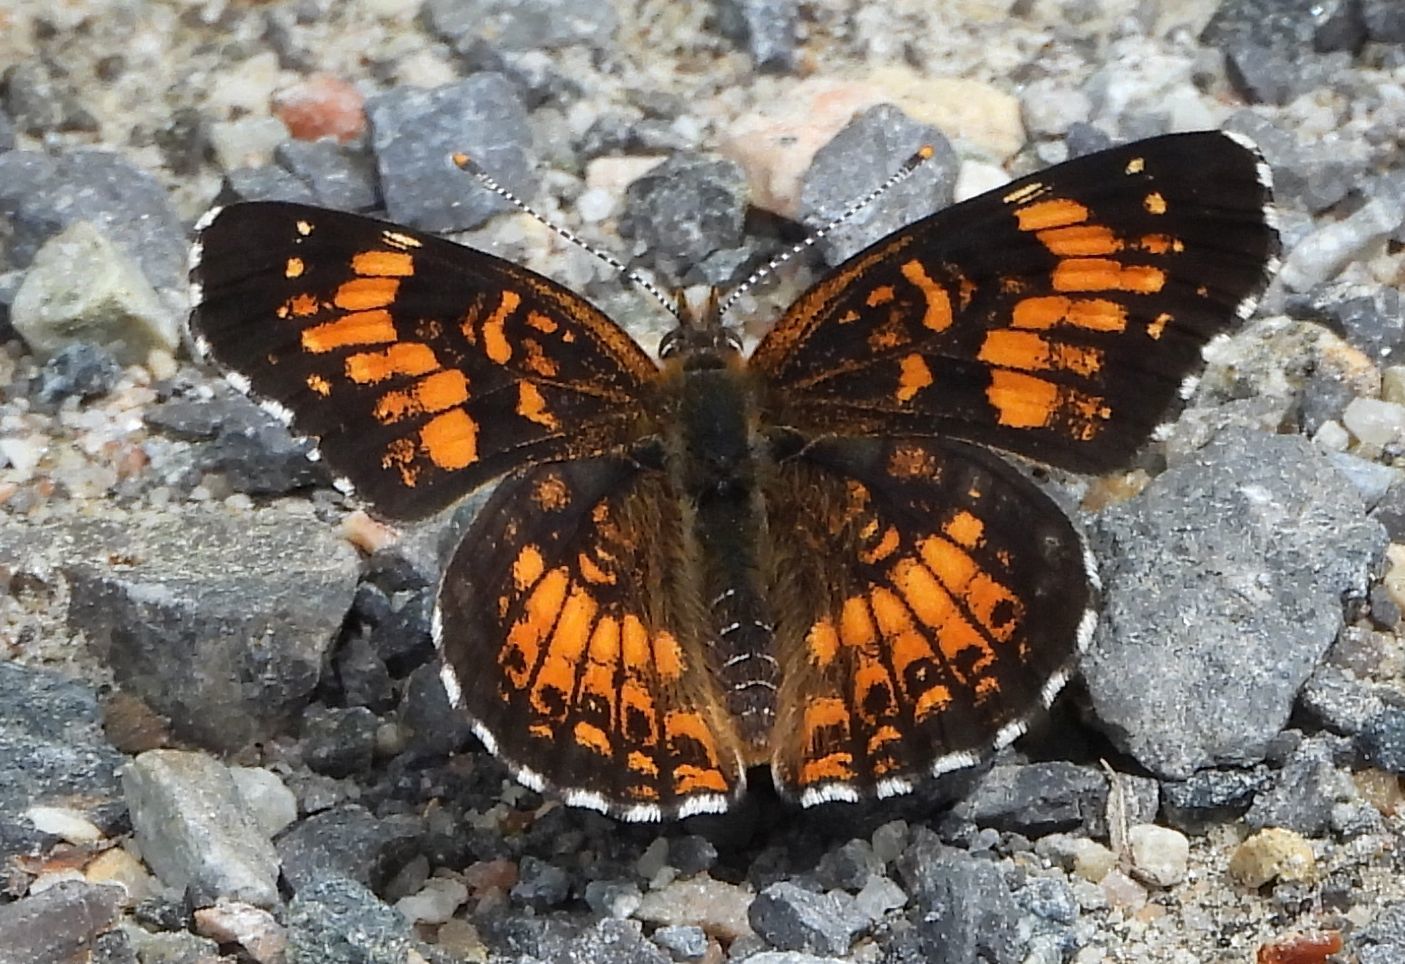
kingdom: Animalia
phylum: Arthropoda
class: Insecta
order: Lepidoptera
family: Nymphalidae
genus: Chlosyne
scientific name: Chlosyne harrisii
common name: Harris's checkerspot
